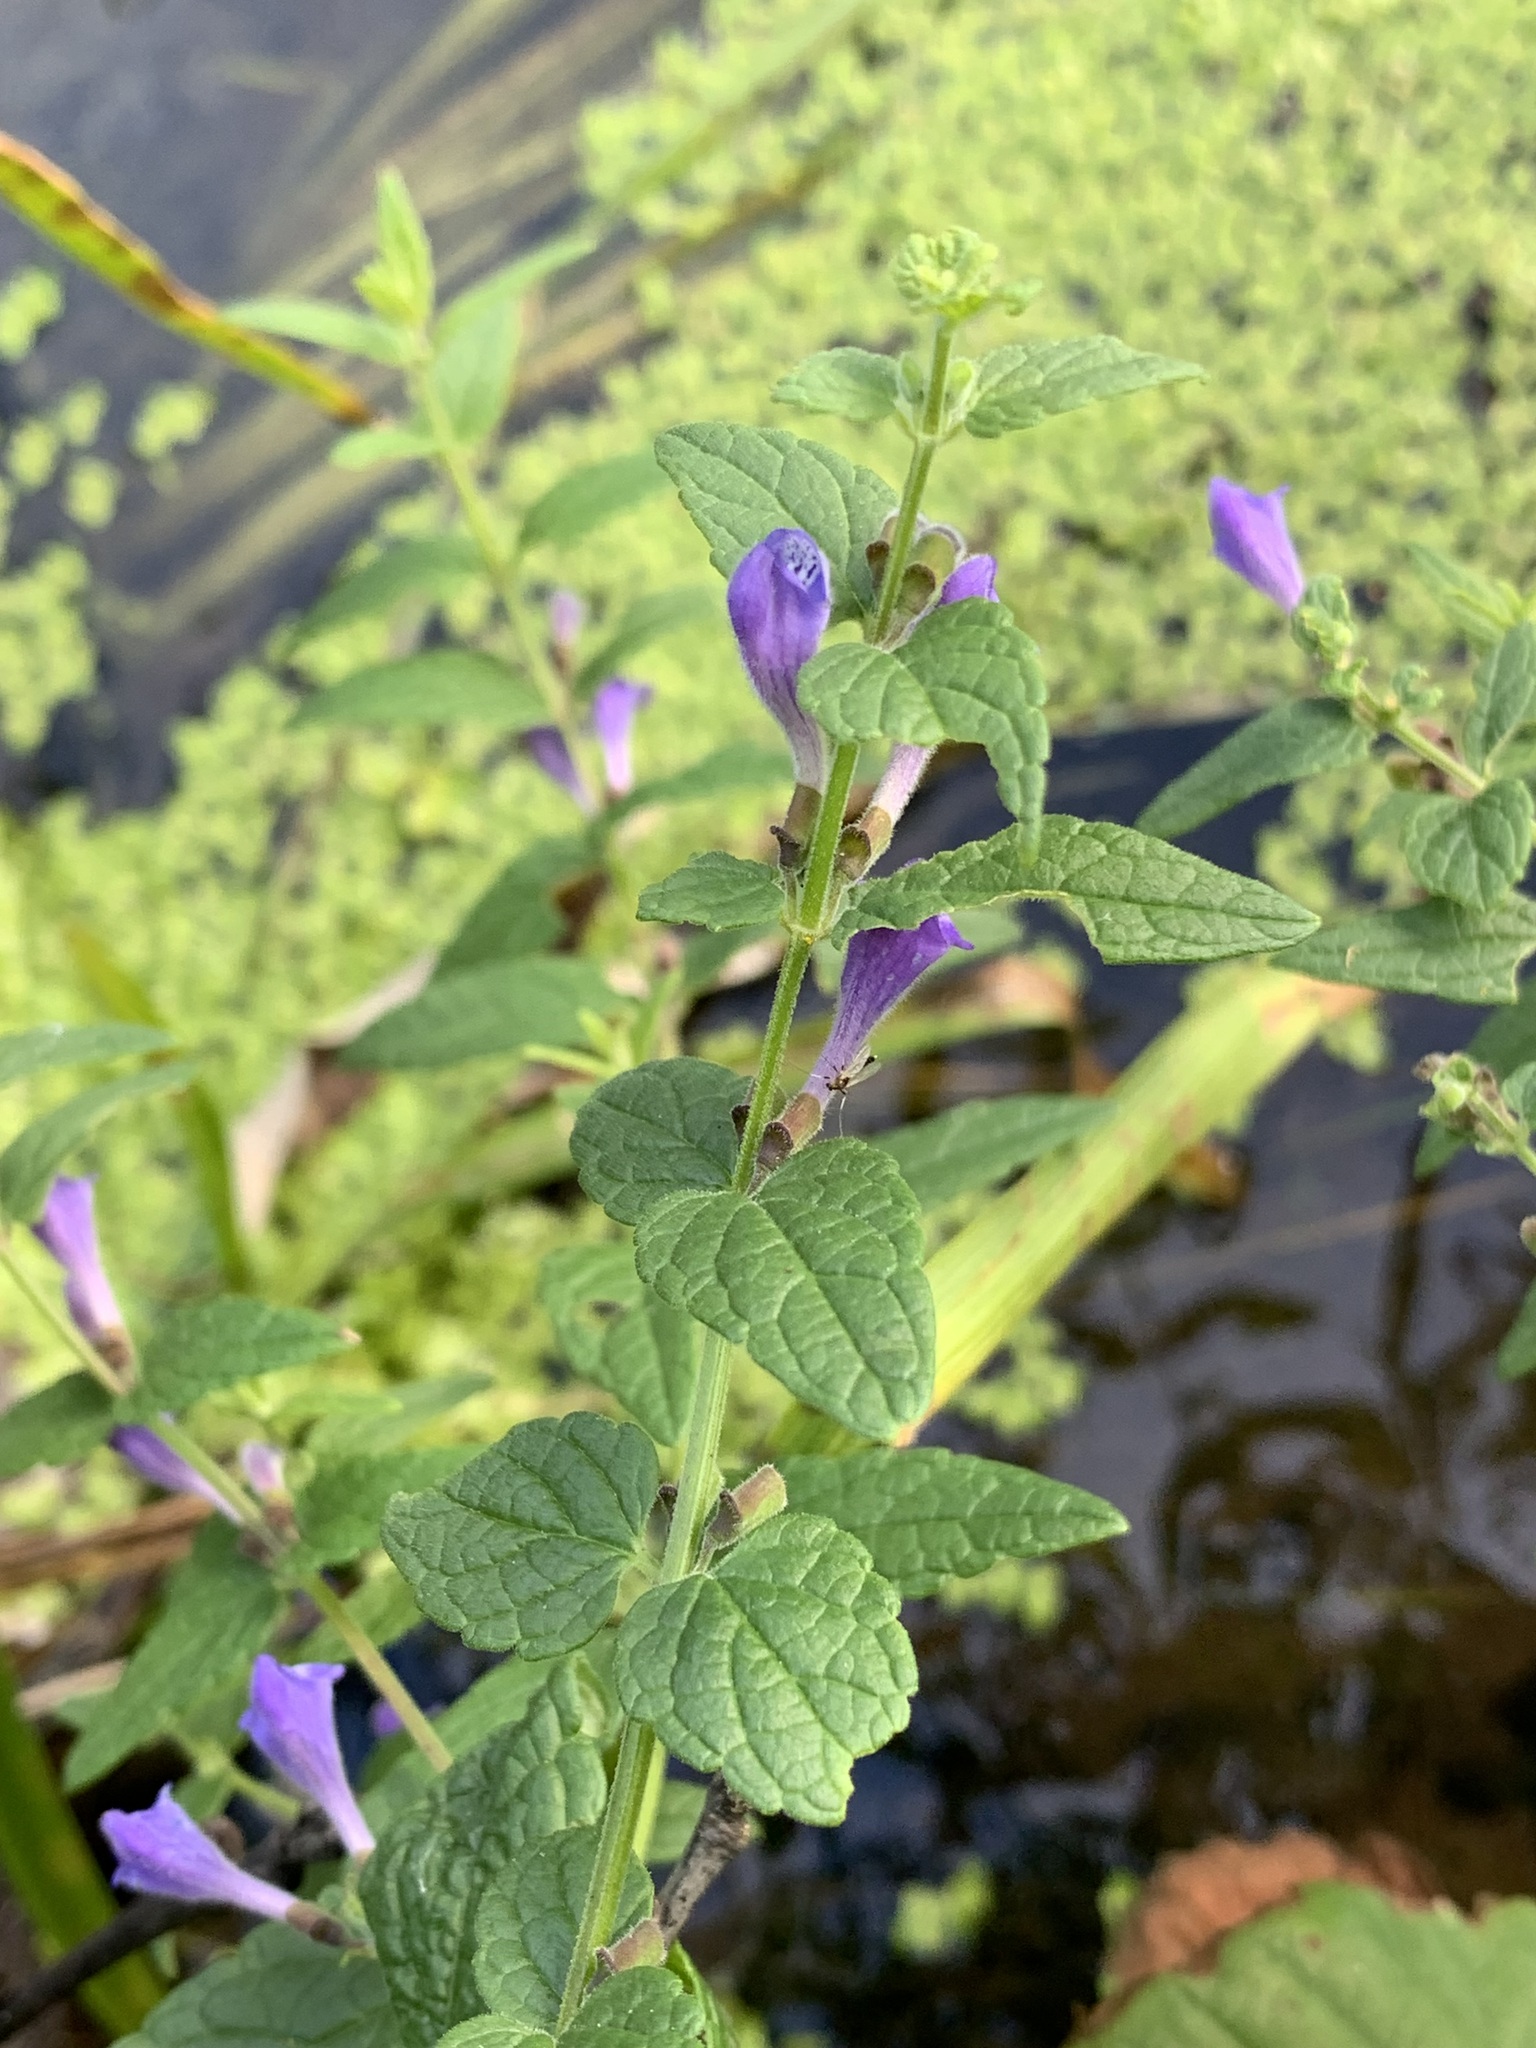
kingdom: Plantae
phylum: Tracheophyta
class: Magnoliopsida
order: Lamiales
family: Lamiaceae
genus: Scutellaria
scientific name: Scutellaria galericulata
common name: Skullcap
